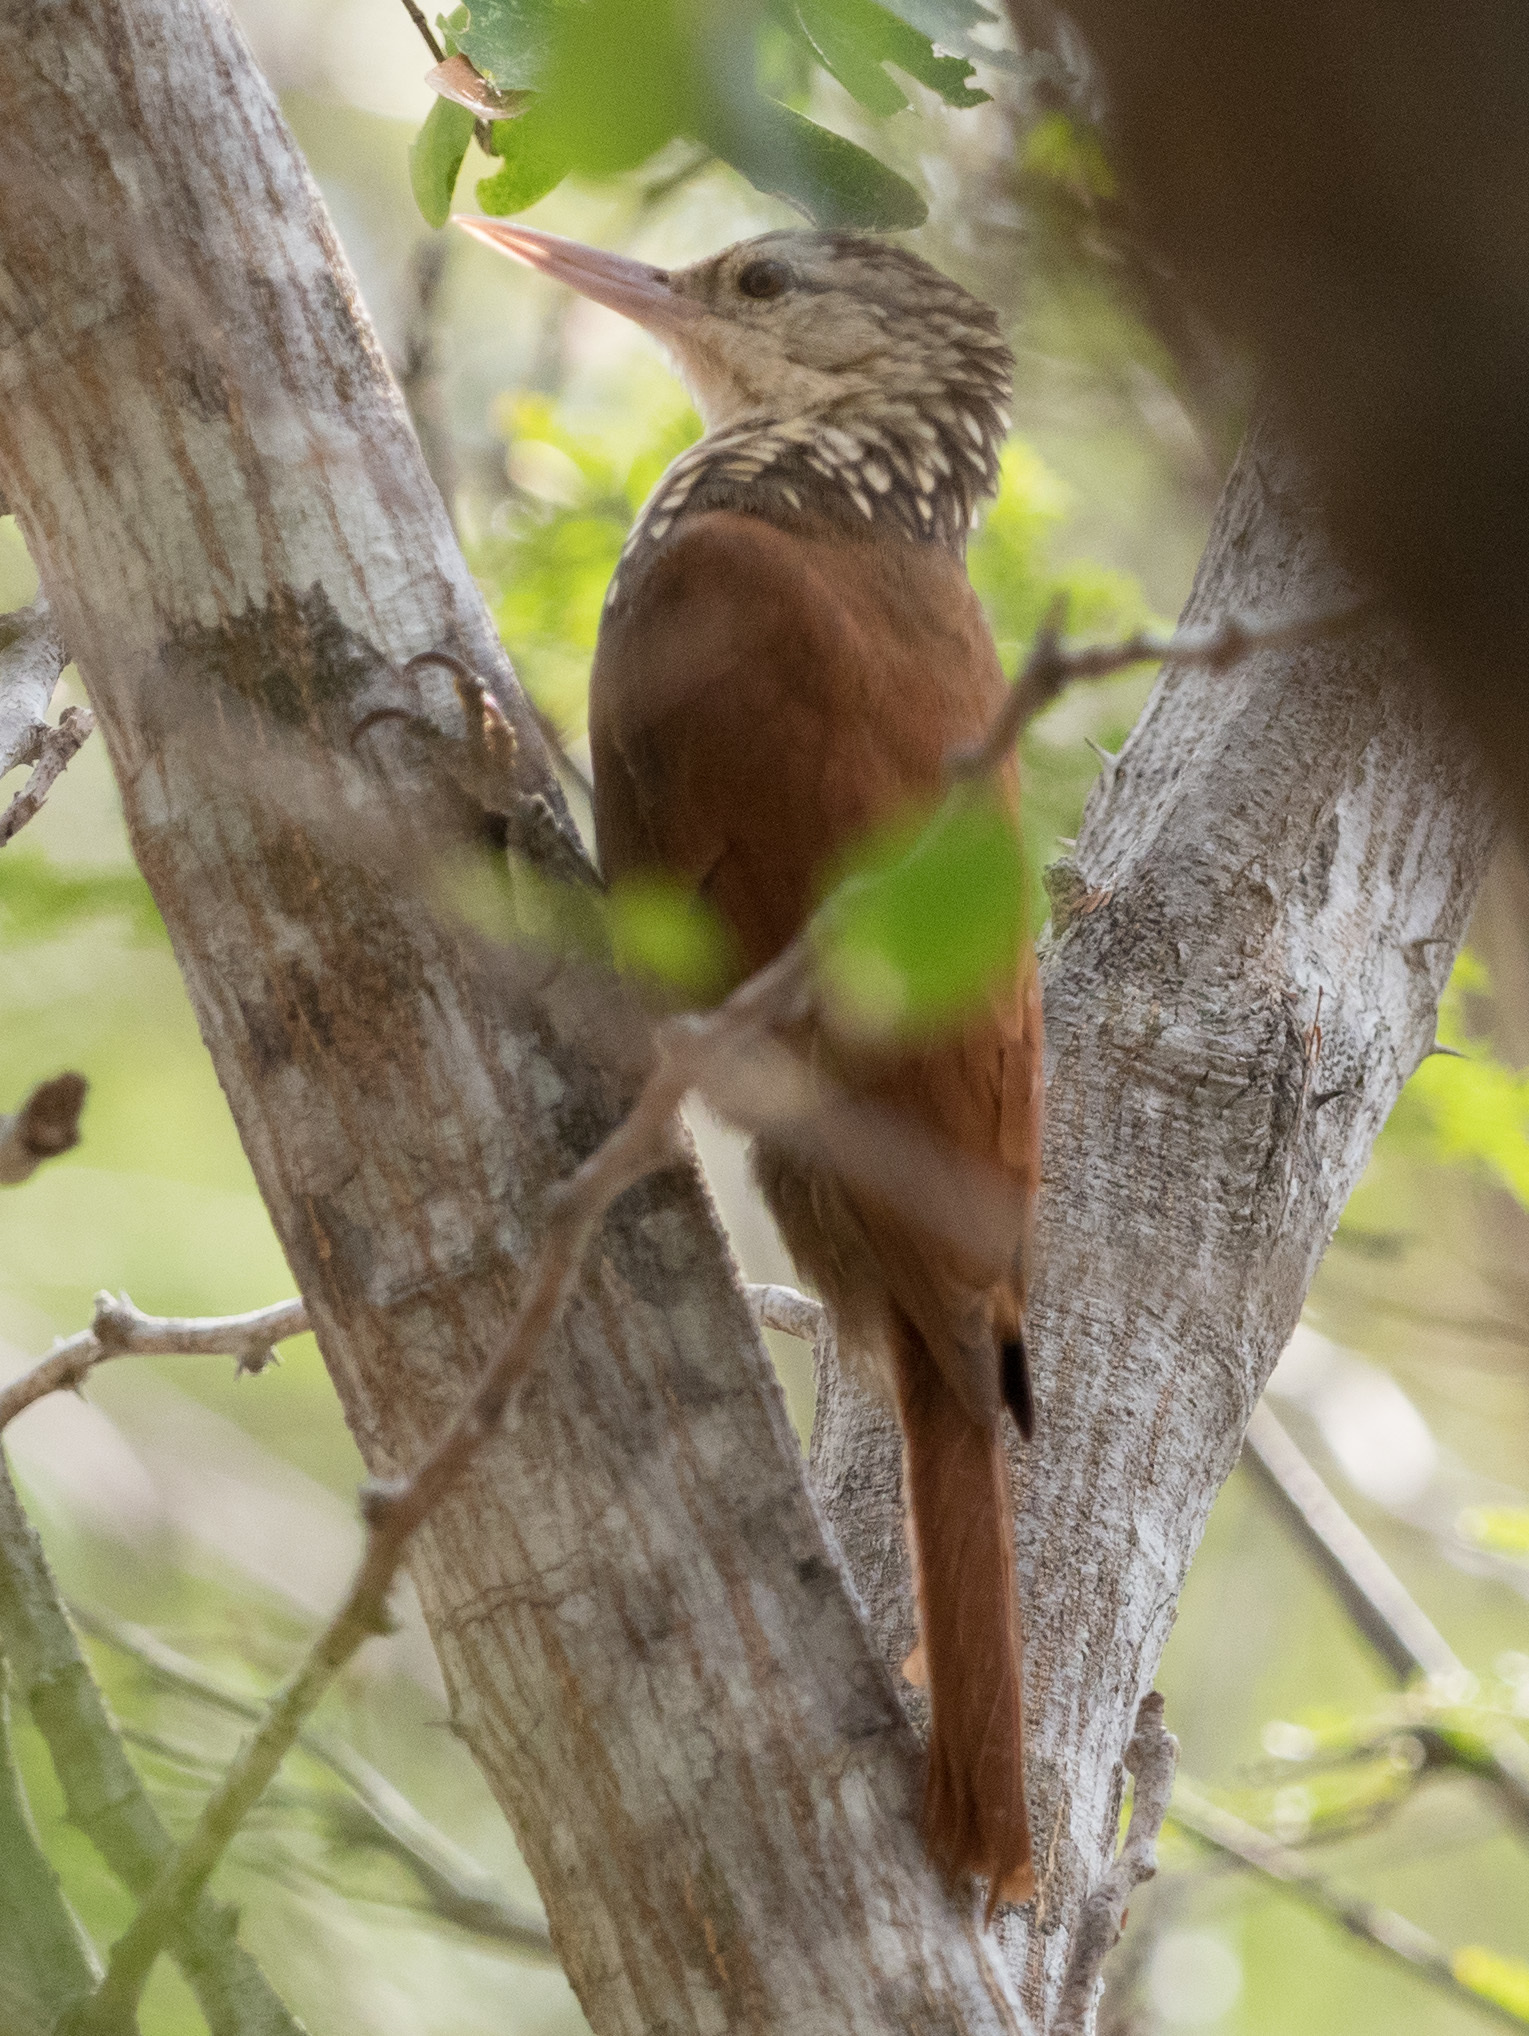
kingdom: Animalia
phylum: Chordata
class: Aves
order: Passeriformes
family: Furnariidae
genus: Xiphorhynchus
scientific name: Xiphorhynchus picus
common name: Straight-billed woodcreeper
